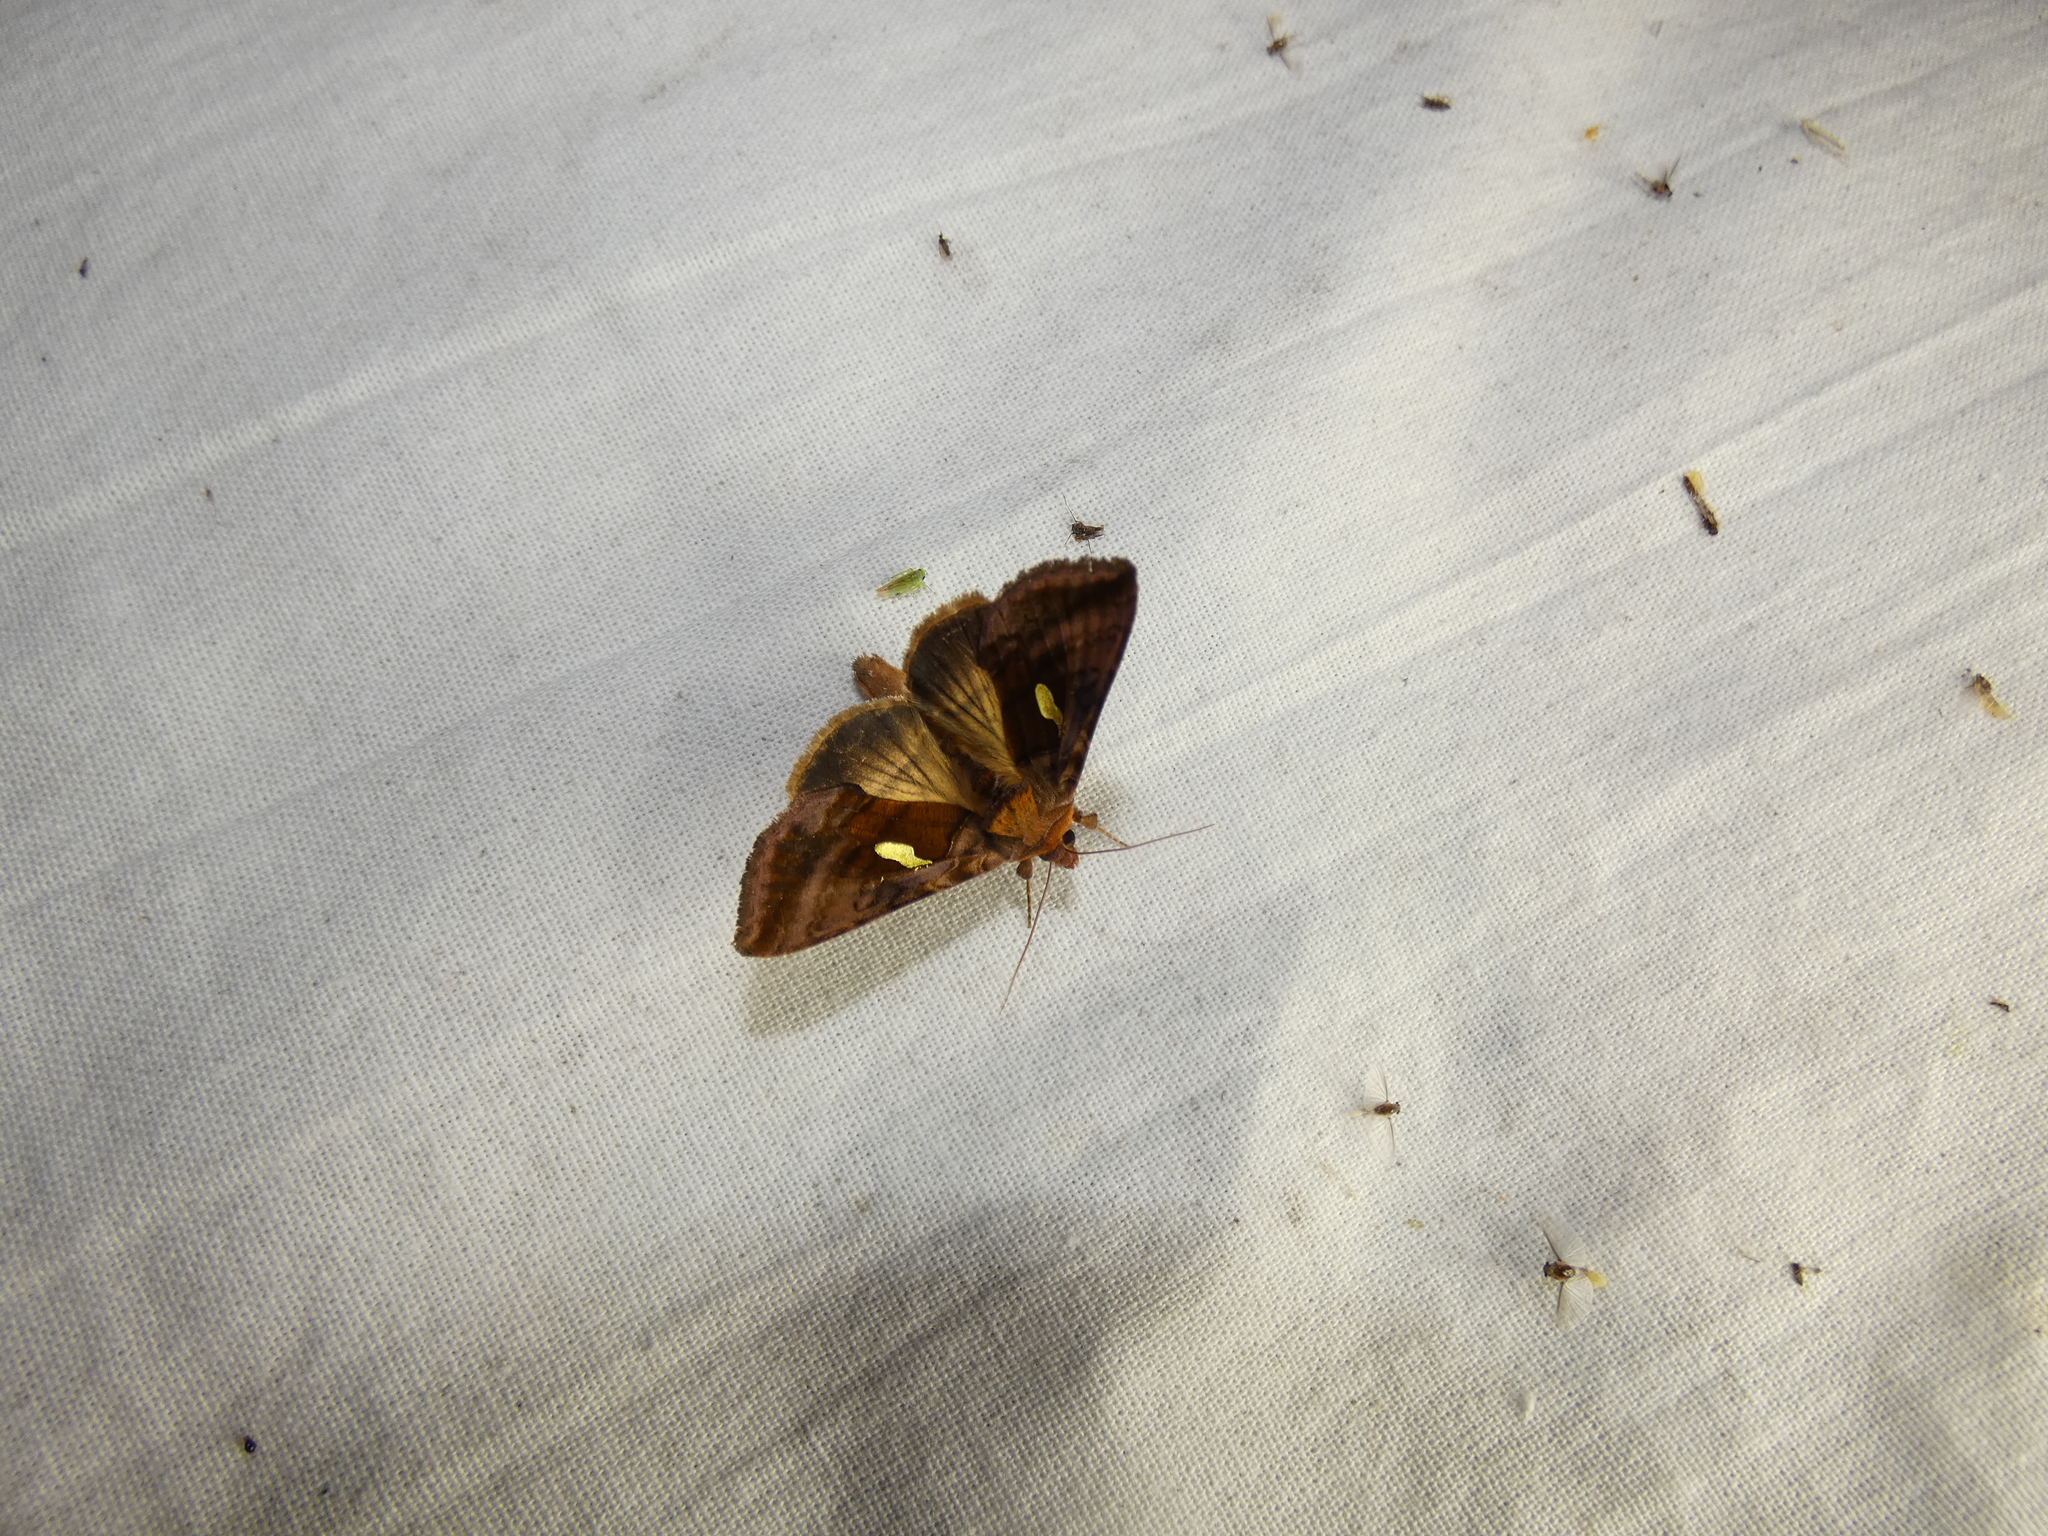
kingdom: Animalia
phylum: Arthropoda
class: Insecta
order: Lepidoptera
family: Noctuidae
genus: Autographa
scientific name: Autographa excelsa
